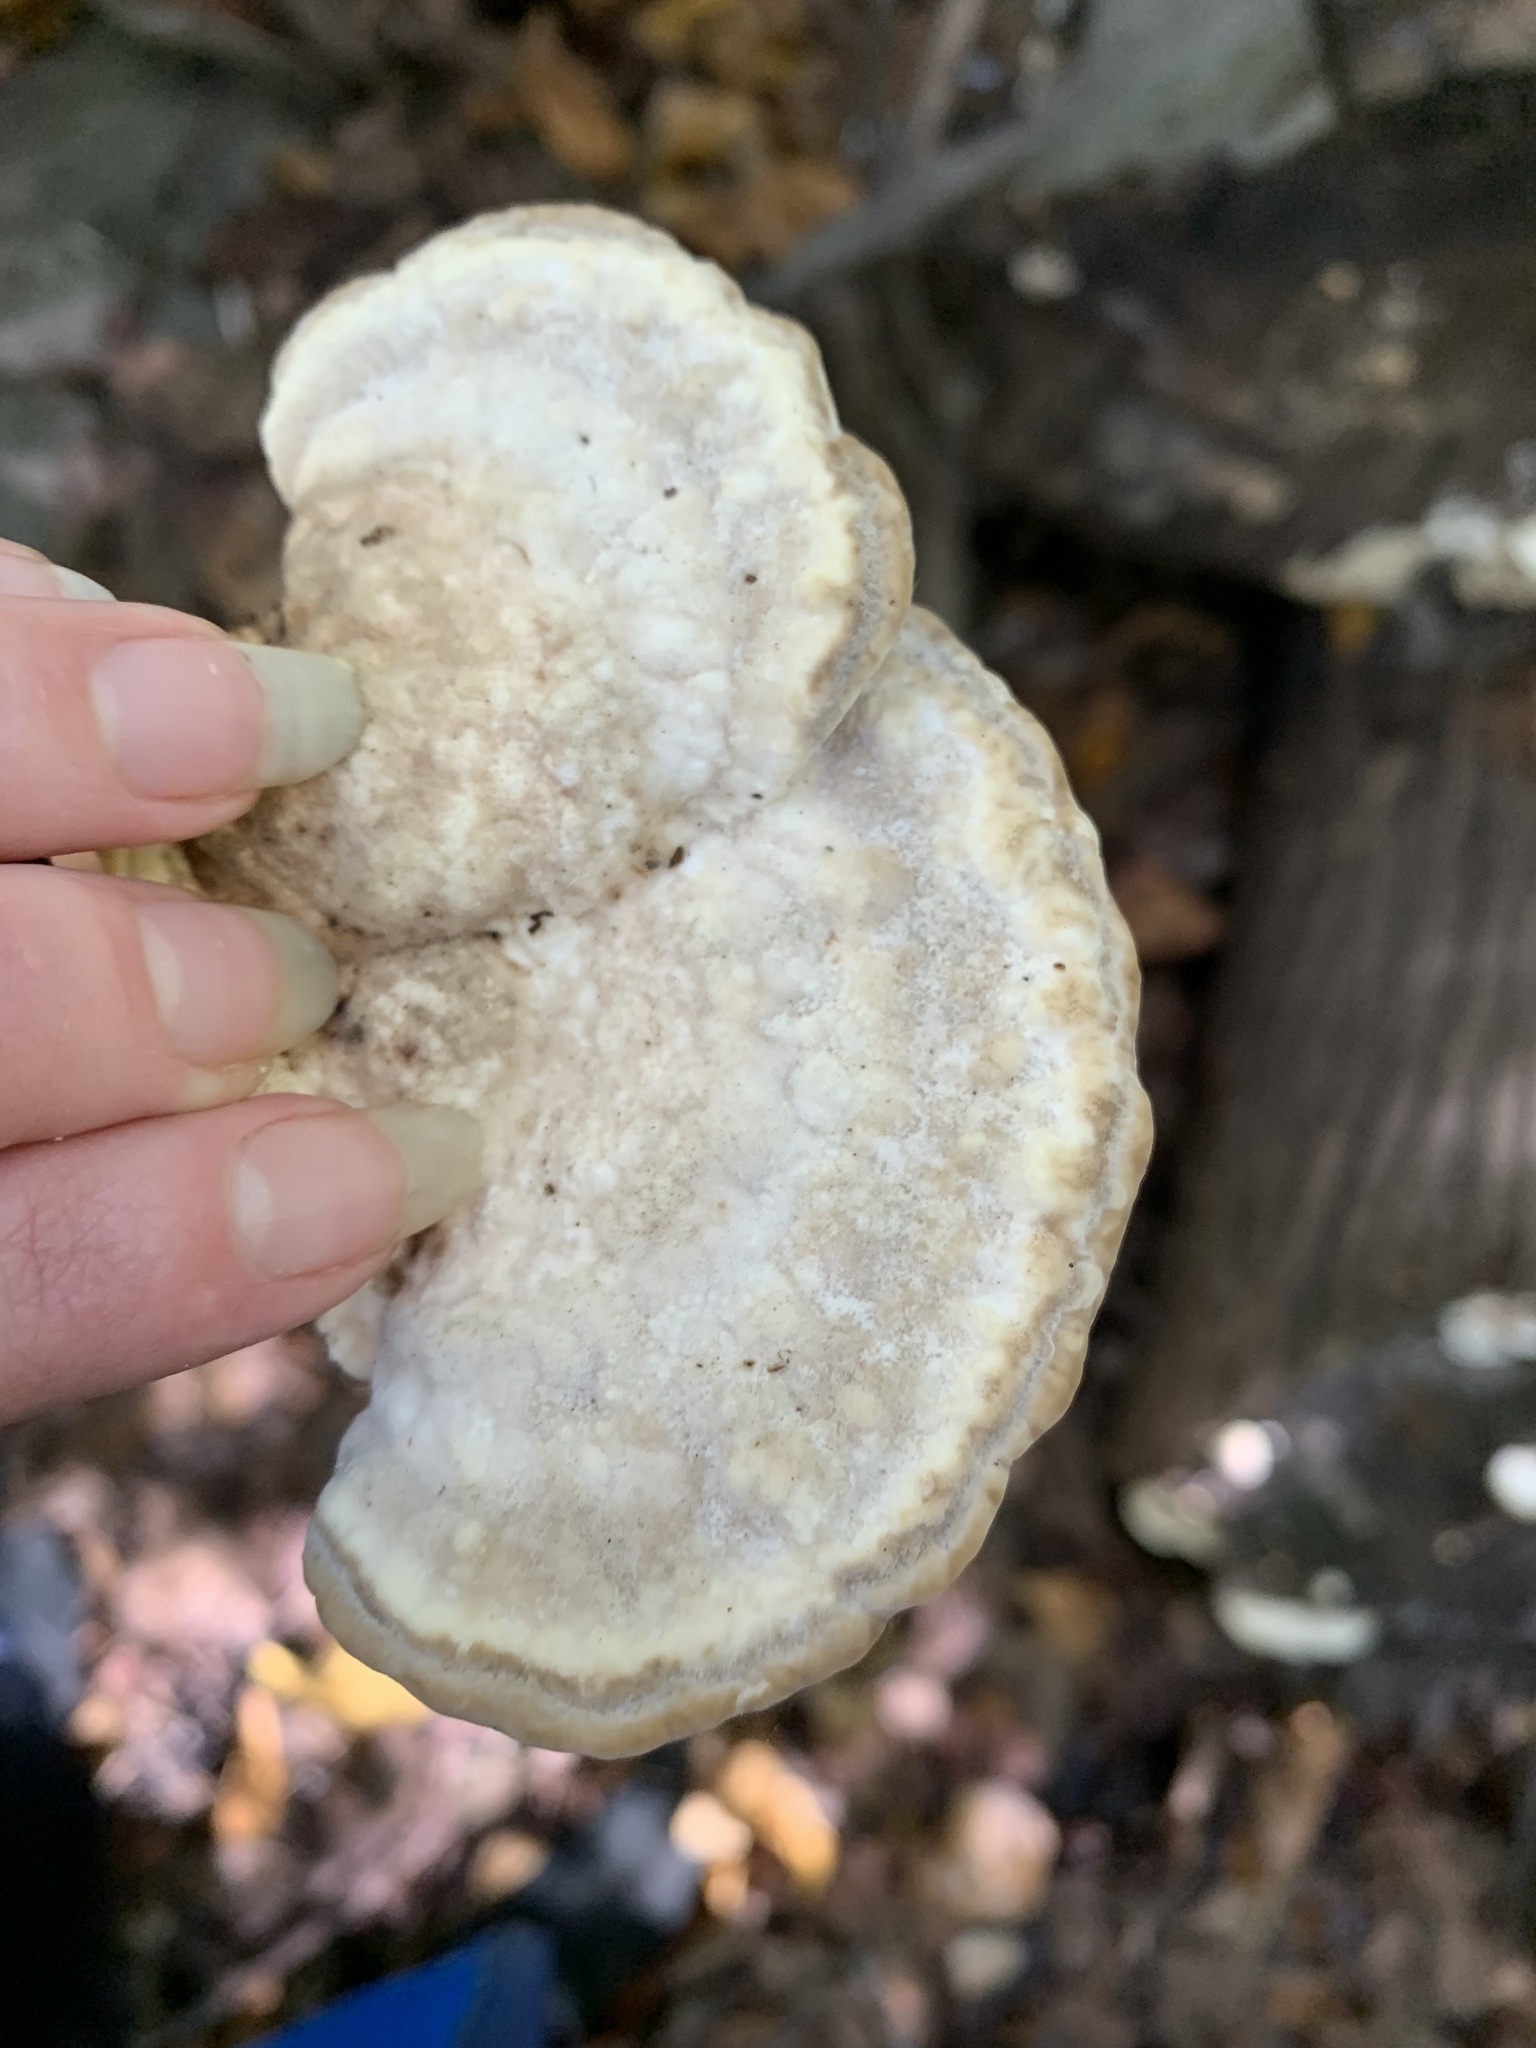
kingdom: Fungi
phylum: Basidiomycota
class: Agaricomycetes
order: Polyporales
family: Polyporaceae
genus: Trametes
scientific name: Trametes gibbosa
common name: Lumpy bracket
